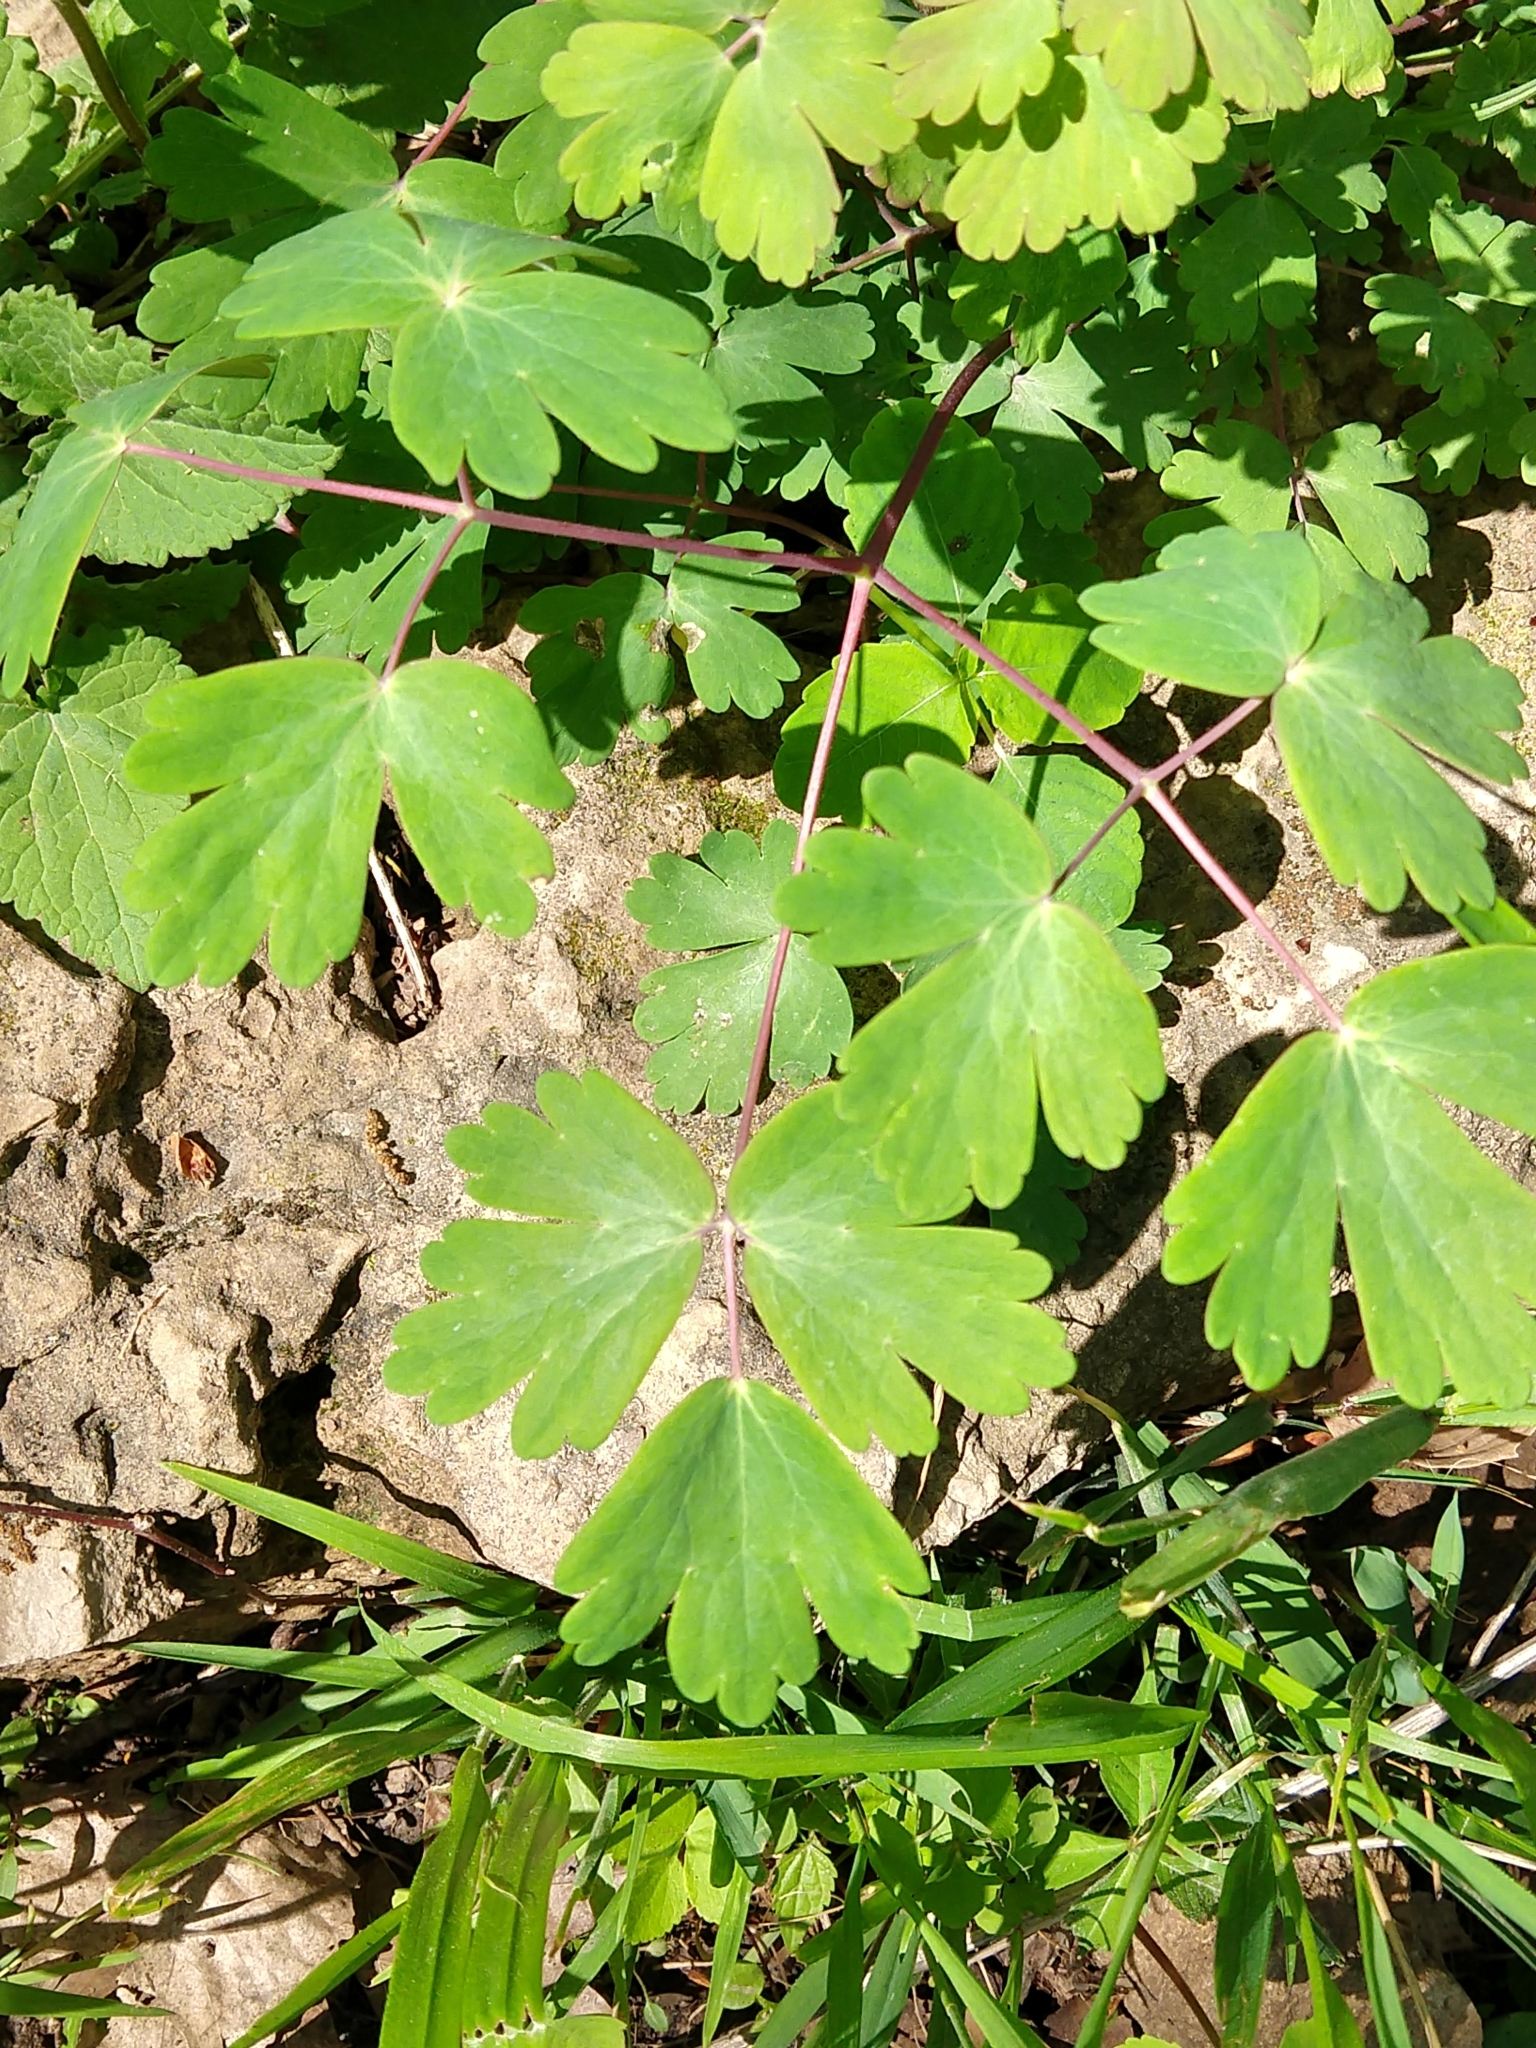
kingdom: Plantae
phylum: Tracheophyta
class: Magnoliopsida
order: Ranunculales
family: Ranunculaceae
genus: Aquilegia
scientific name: Aquilegia canadensis
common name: American columbine
